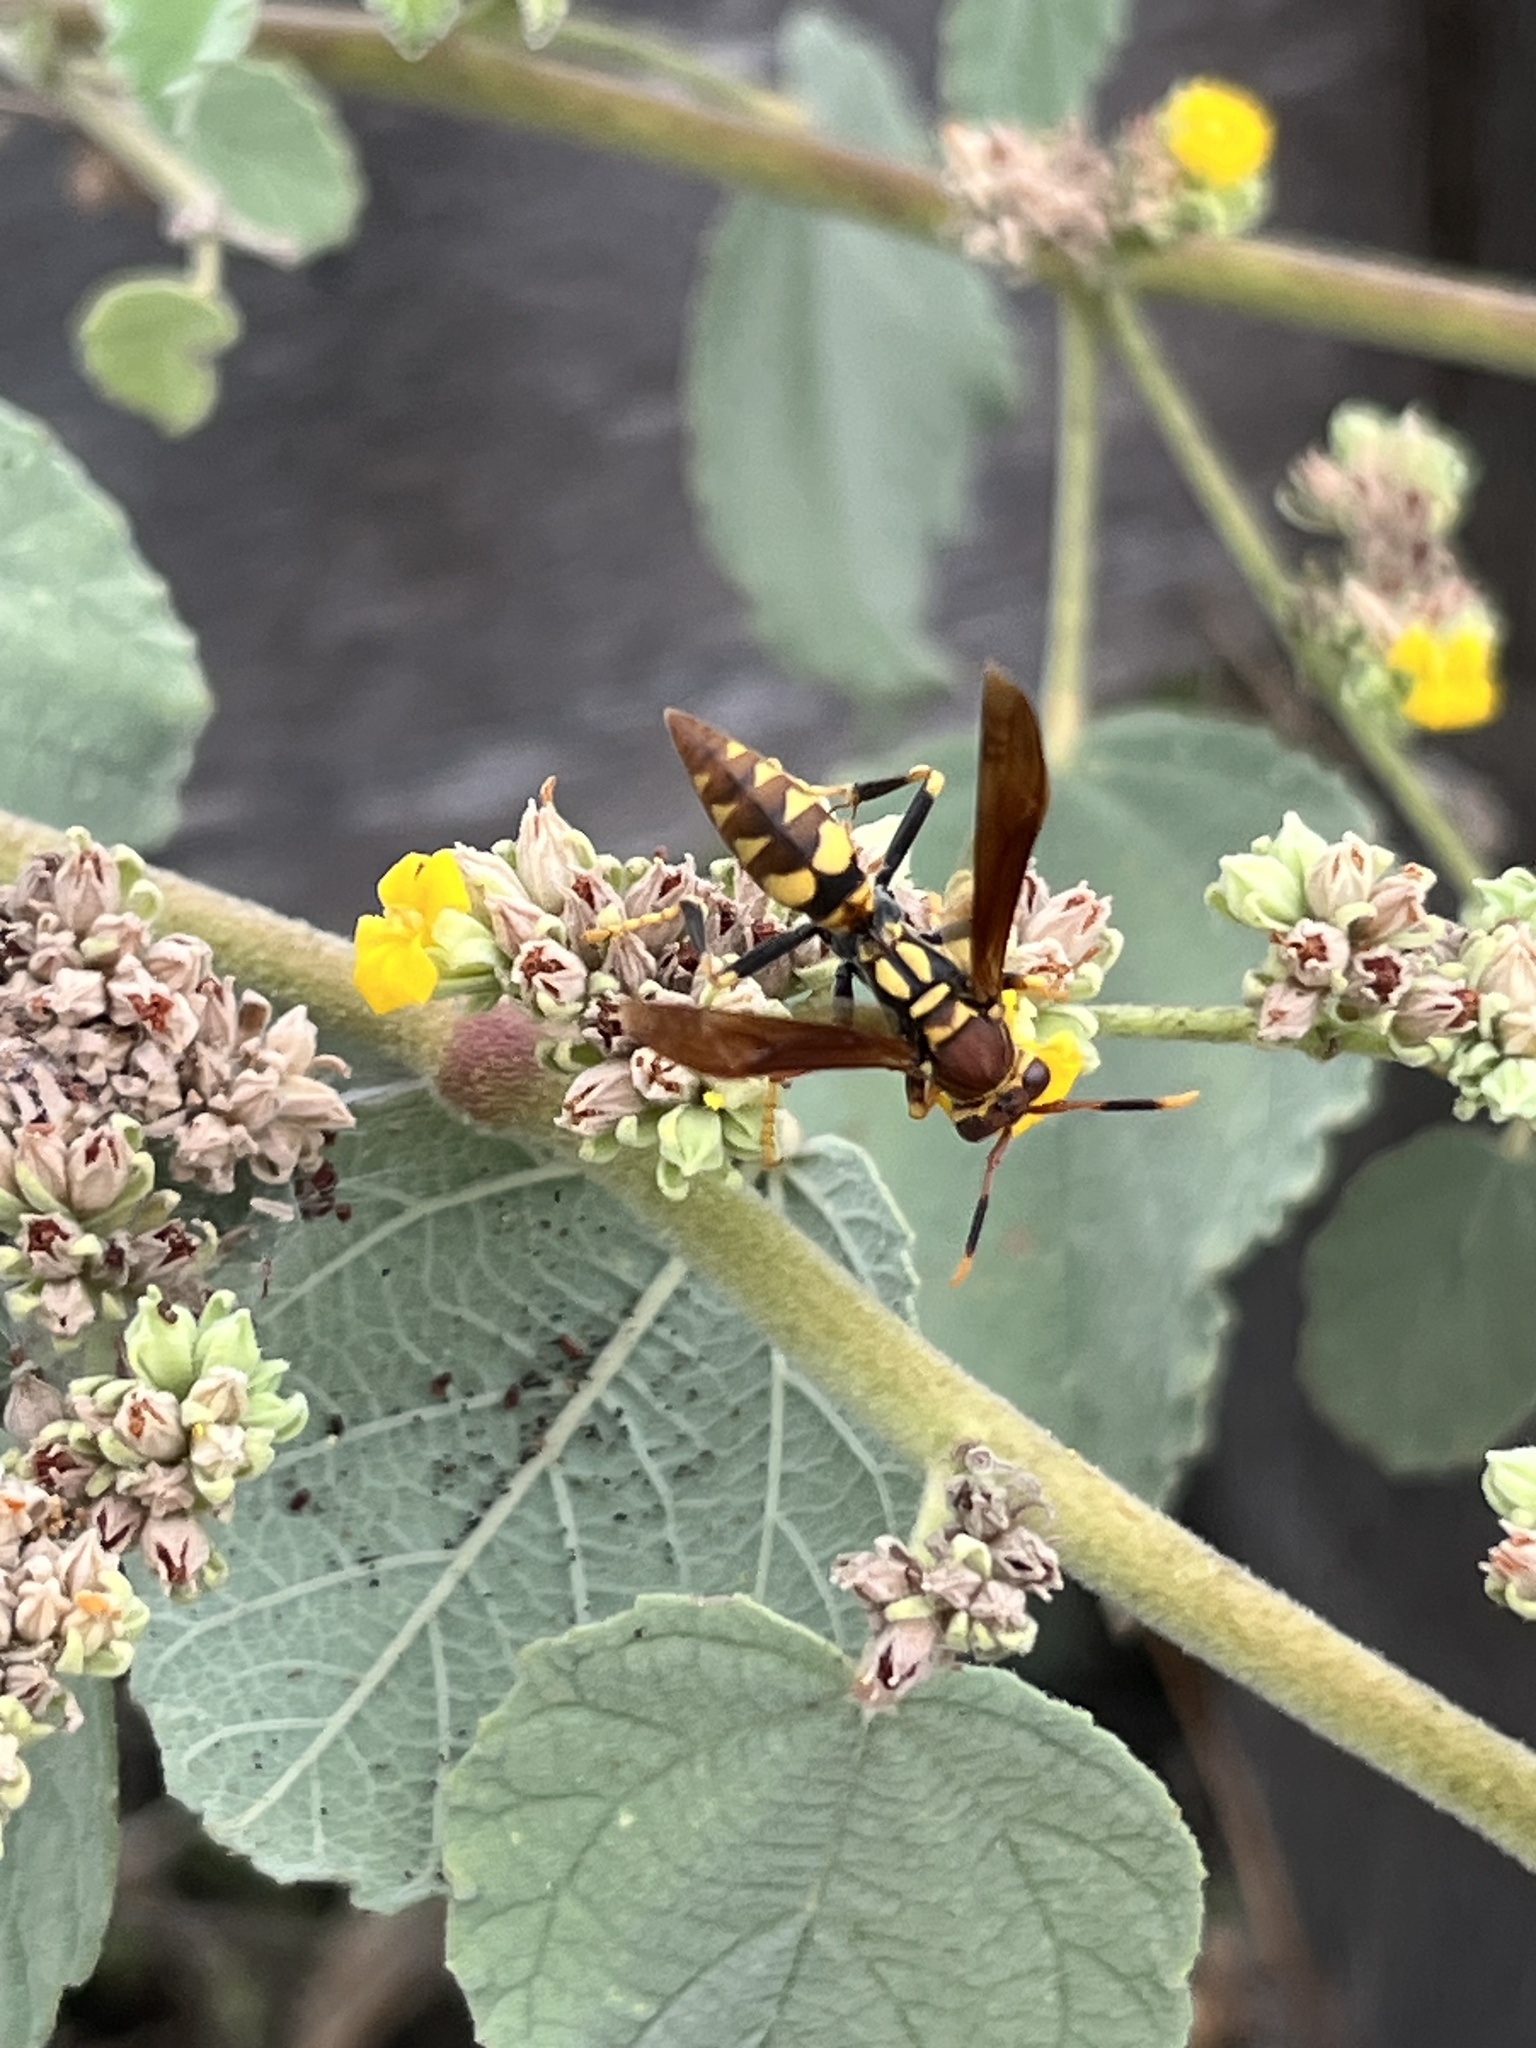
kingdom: Animalia
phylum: Arthropoda
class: Insecta
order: Hymenoptera
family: Eumenidae
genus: Polistes
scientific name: Polistes versicolor
